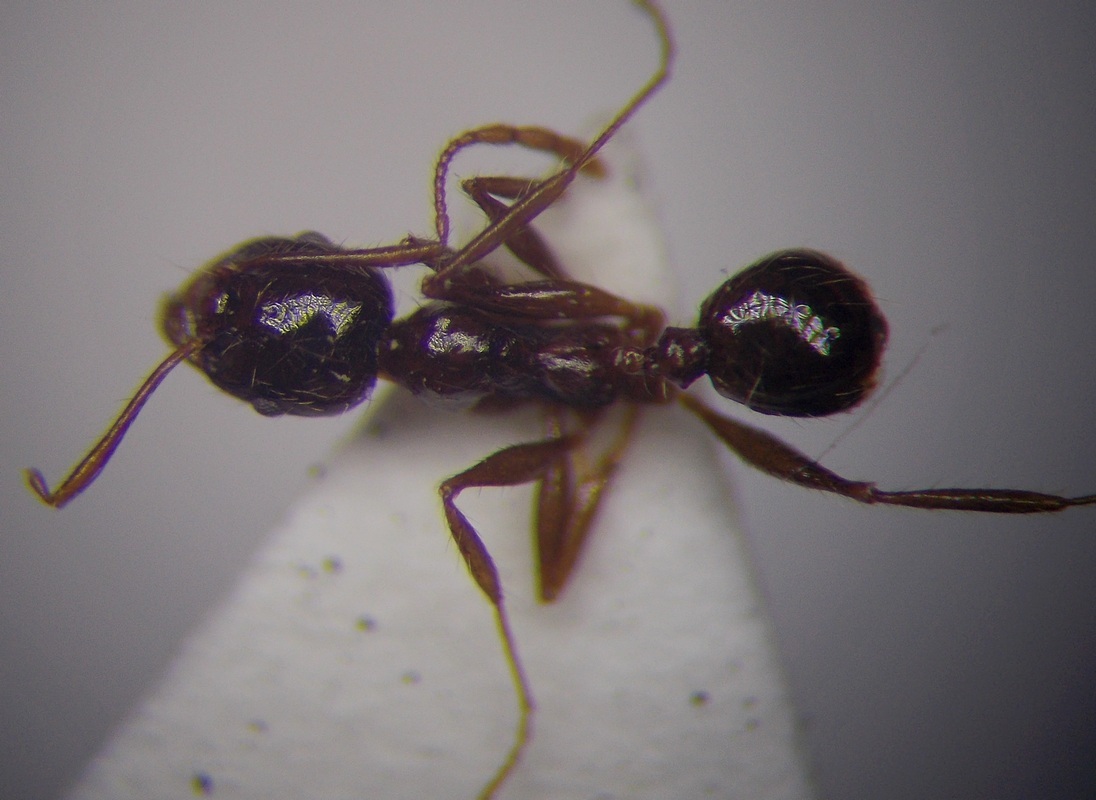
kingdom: Animalia
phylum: Arthropoda
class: Insecta
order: Hymenoptera
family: Formicidae
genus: Pheidole
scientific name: Pheidole pallidula
